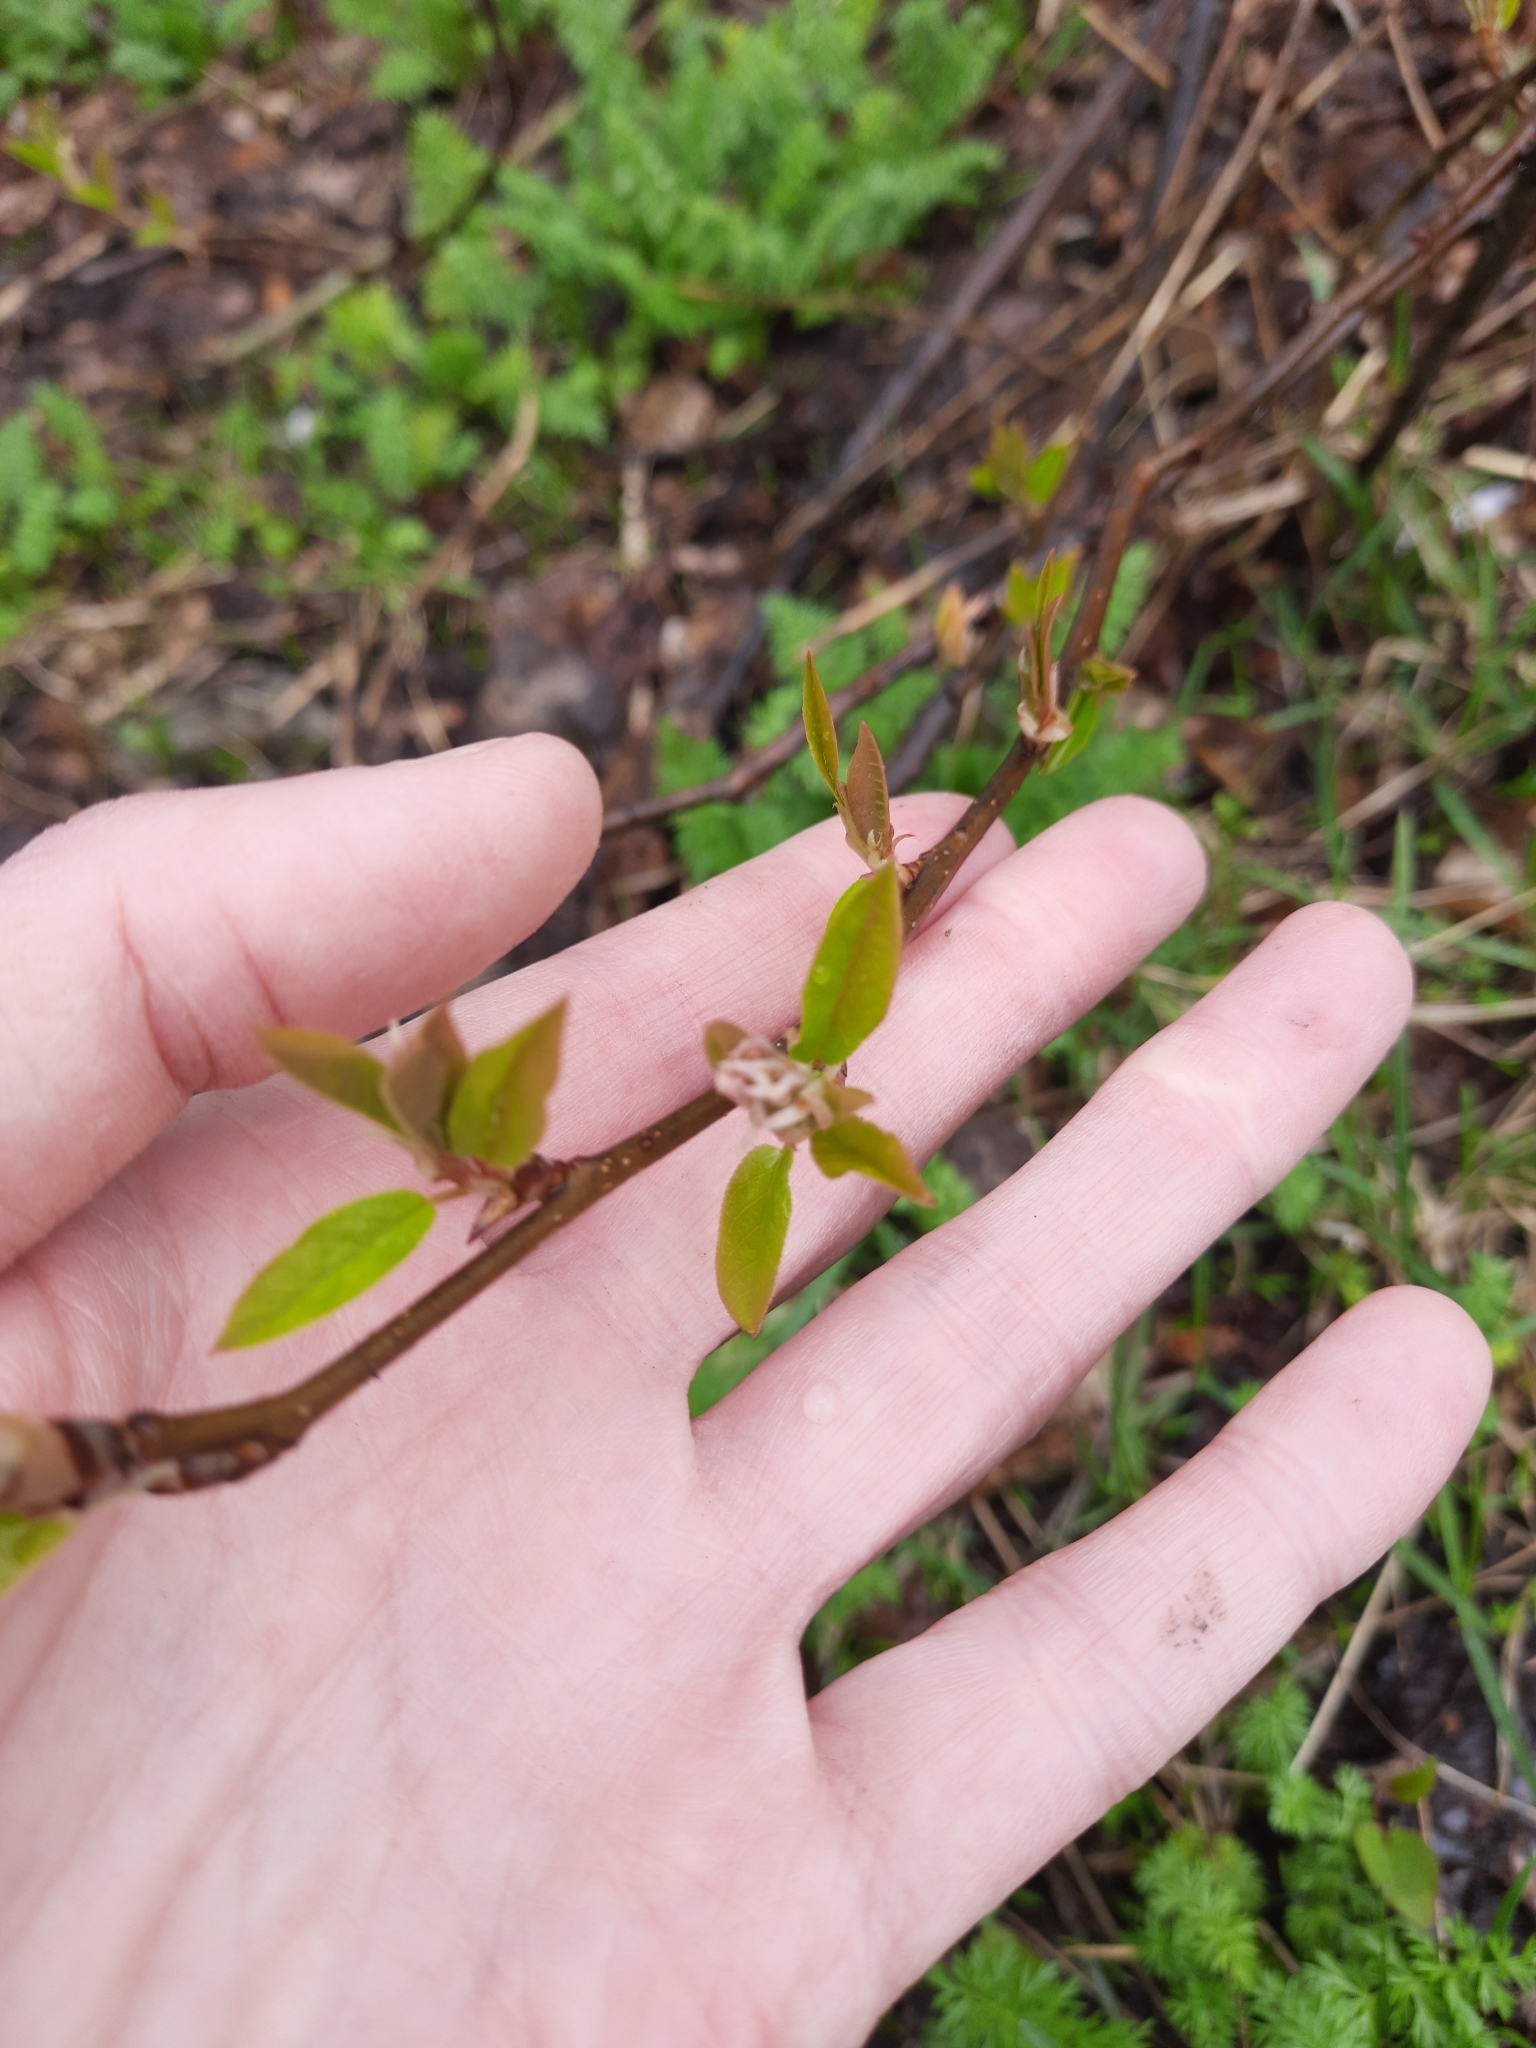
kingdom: Plantae
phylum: Tracheophyta
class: Magnoliopsida
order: Rosales
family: Rosaceae
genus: Prunus
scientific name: Prunus padus
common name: Bird cherry
